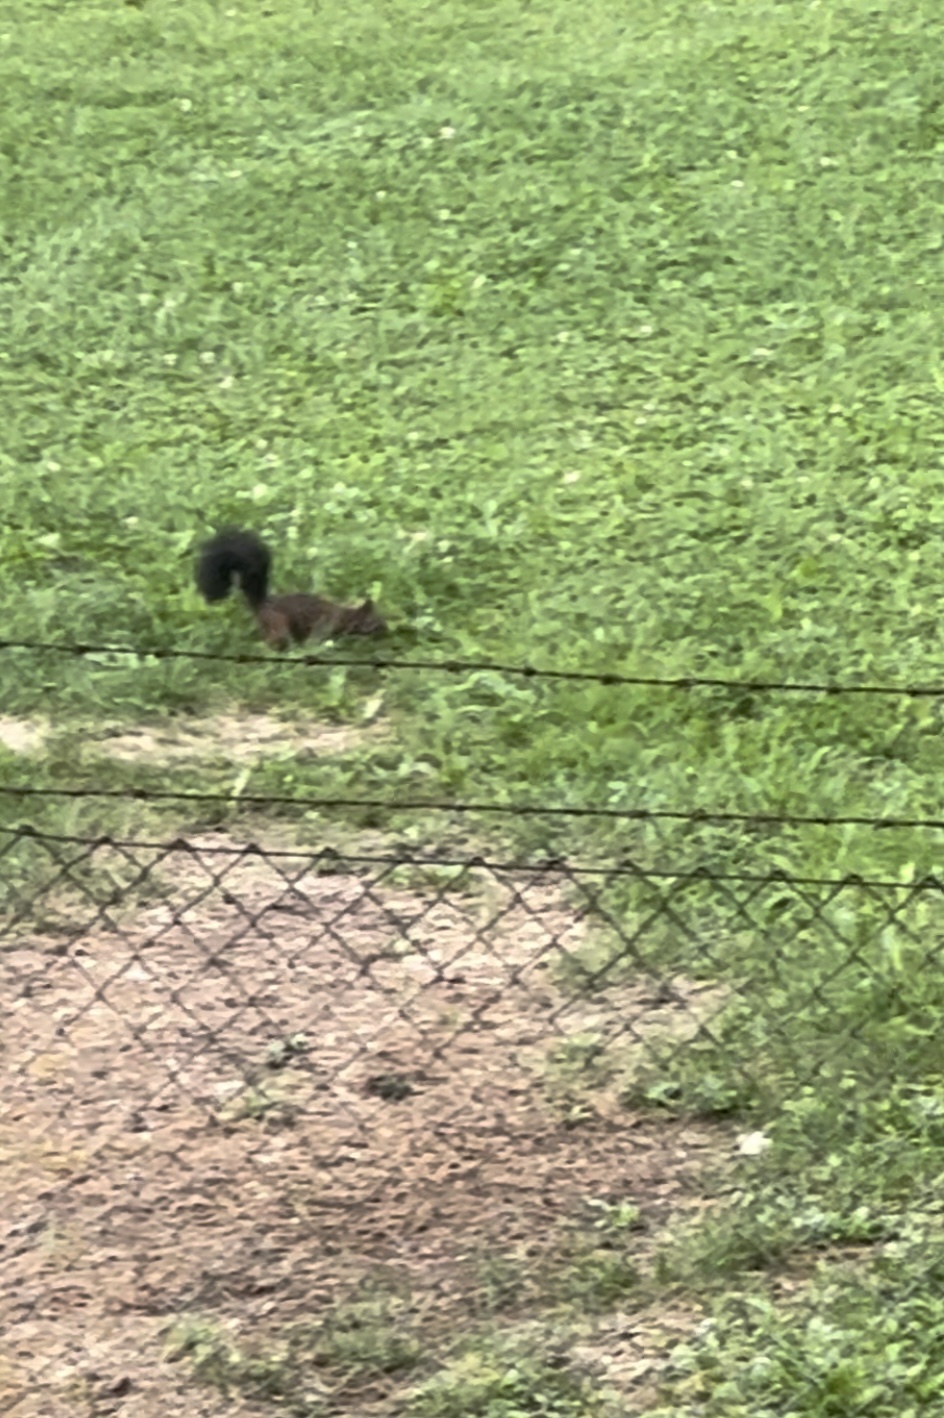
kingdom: Animalia
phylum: Chordata
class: Mammalia
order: Rodentia
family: Sciuridae
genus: Sciurus
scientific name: Sciurus vulgaris
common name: Eurasian red squirrel
